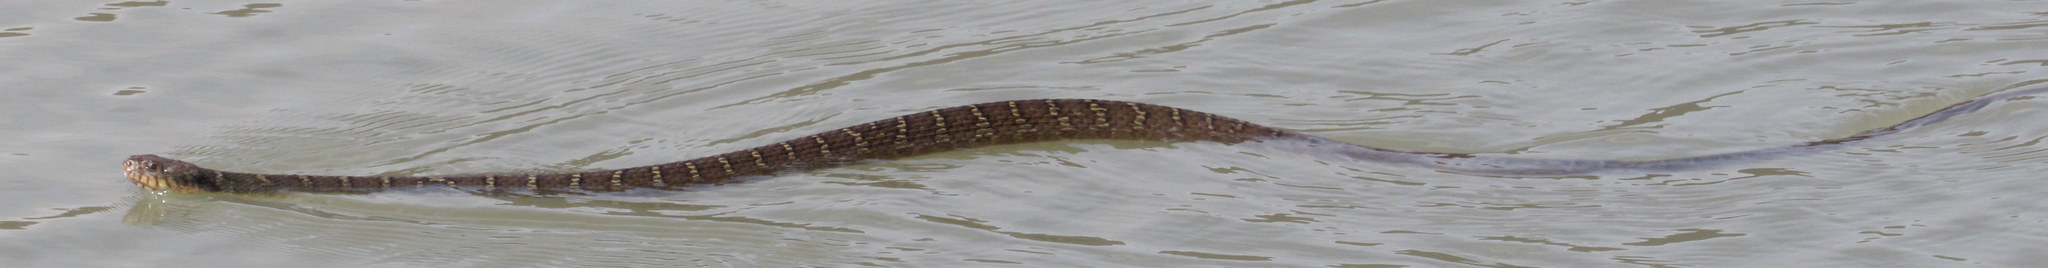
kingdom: Animalia
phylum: Chordata
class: Squamata
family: Colubridae
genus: Nerodia
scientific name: Nerodia erythrogaster
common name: Plainbelly water snake
